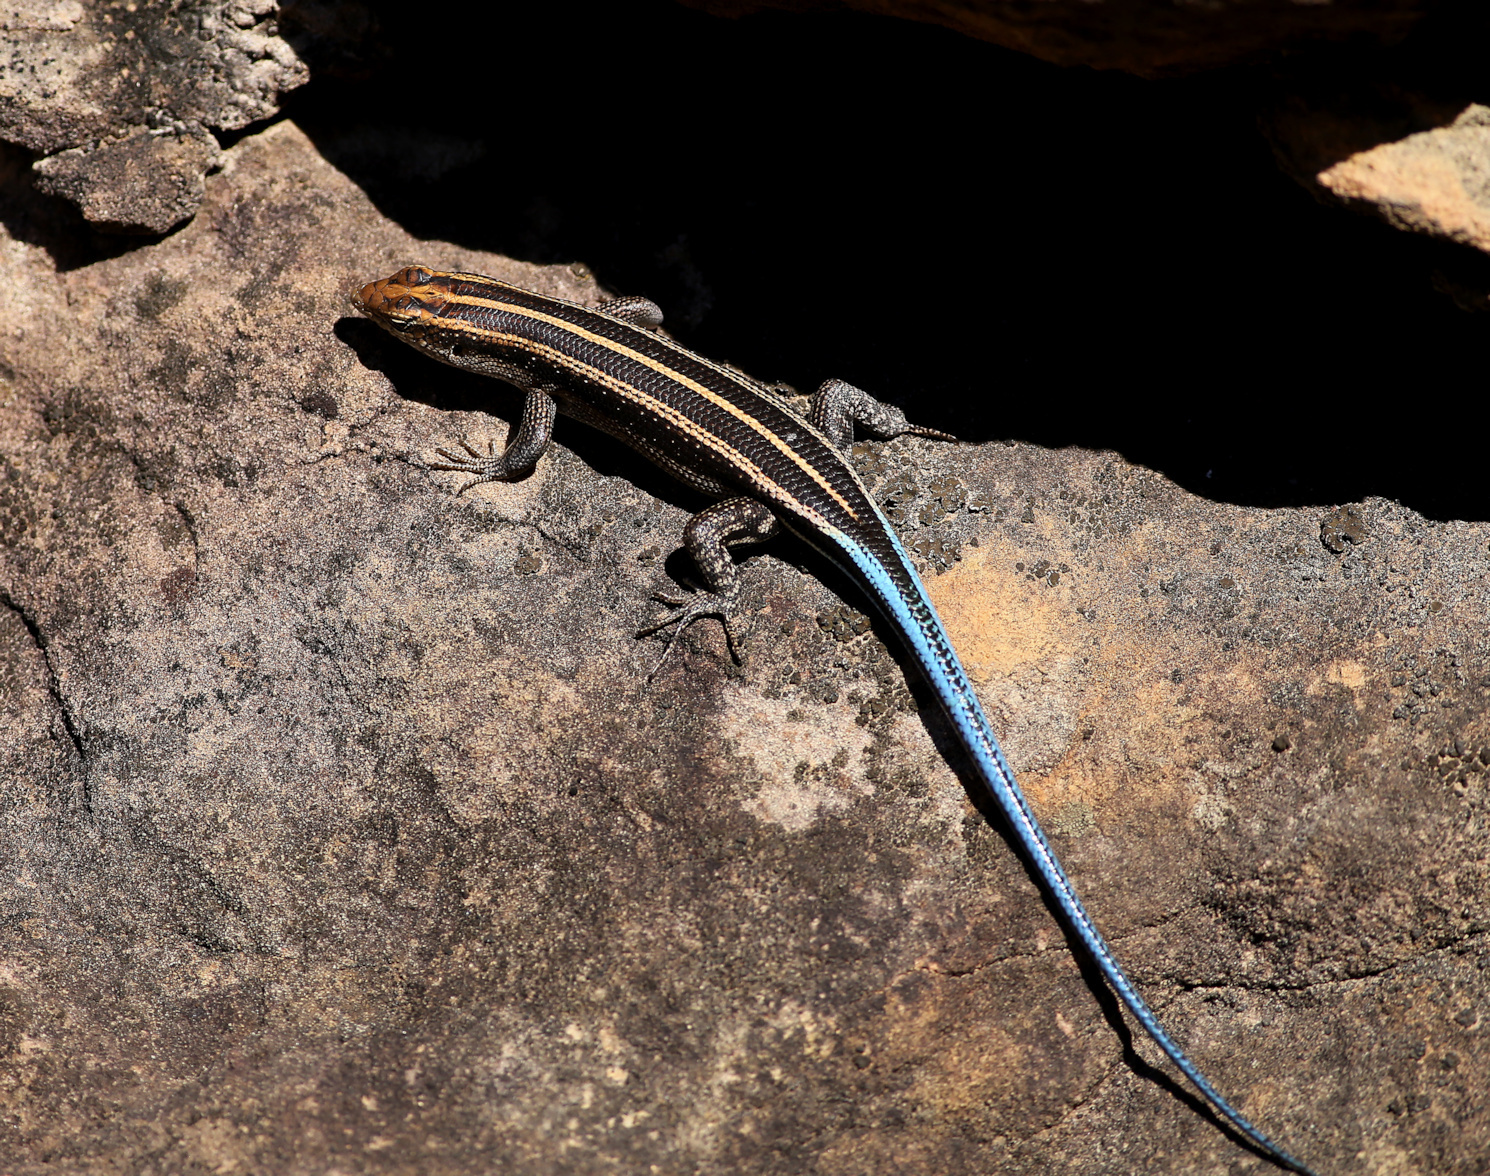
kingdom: Animalia
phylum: Chordata
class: Squamata
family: Scincidae
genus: Trachylepis
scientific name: Trachylepis margaritifera
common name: Rainbow skink
